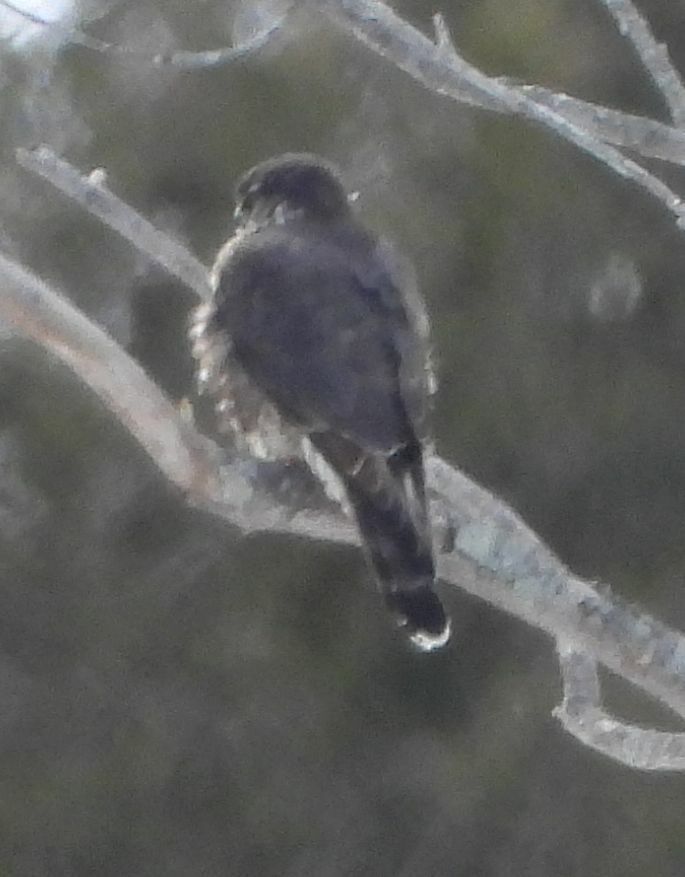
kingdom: Animalia
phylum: Chordata
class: Aves
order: Falconiformes
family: Falconidae
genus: Falco
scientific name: Falco columbarius
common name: Merlin
